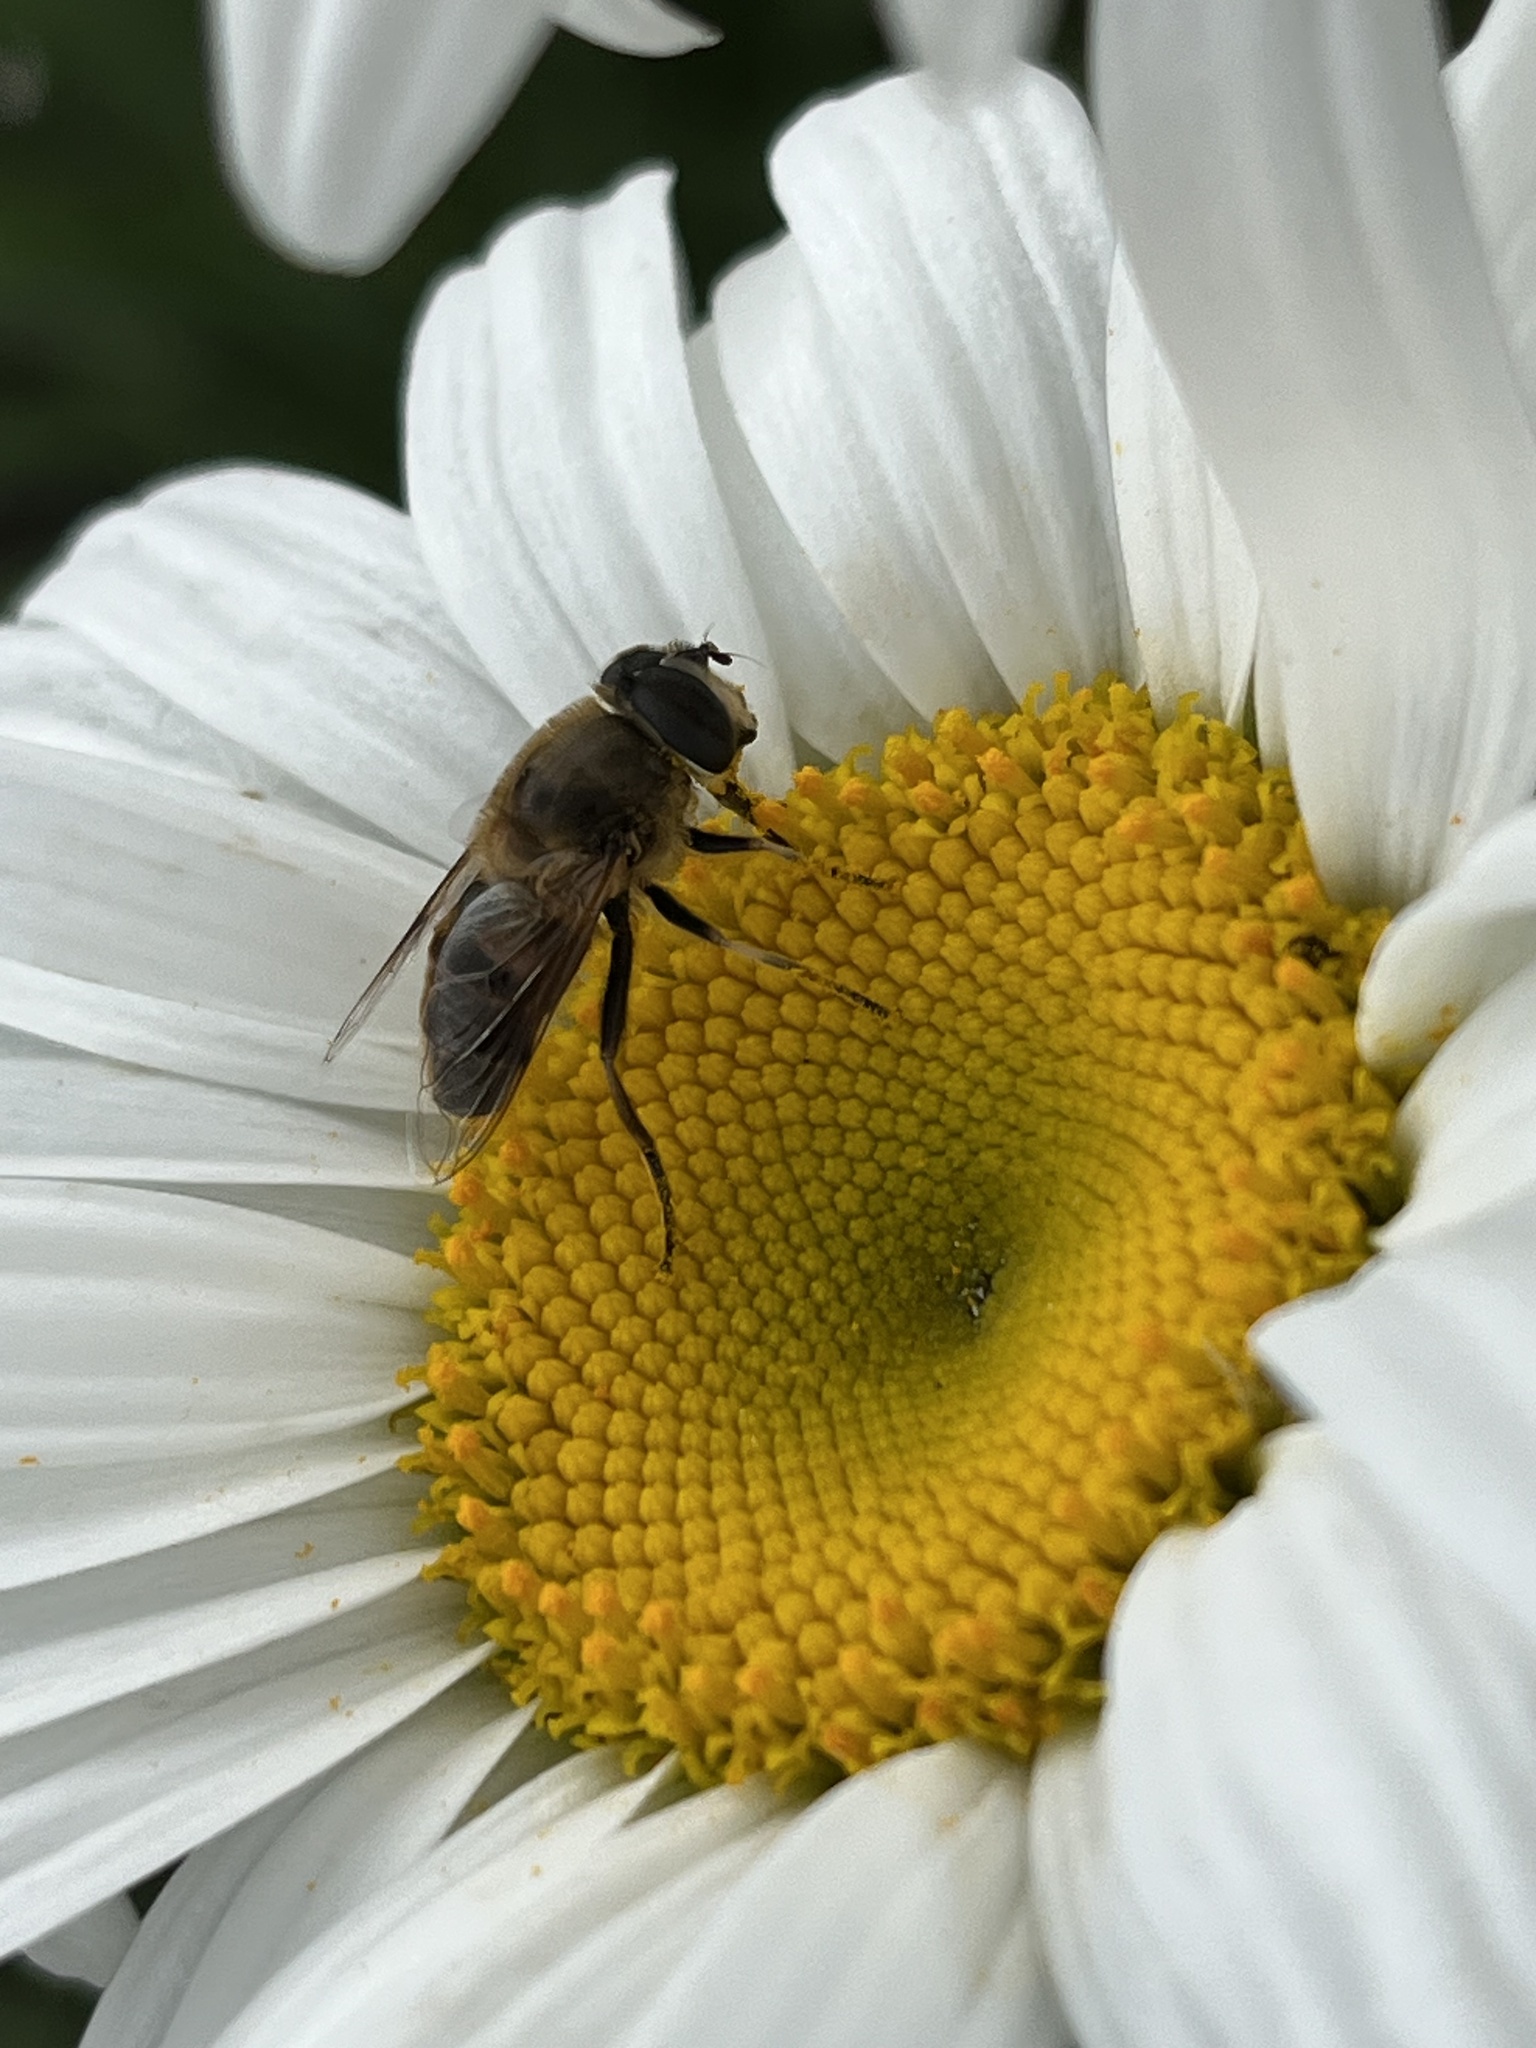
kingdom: Animalia
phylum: Arthropoda
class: Insecta
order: Diptera
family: Syrphidae
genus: Eristalis
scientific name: Eristalis tenax
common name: Drone fly
